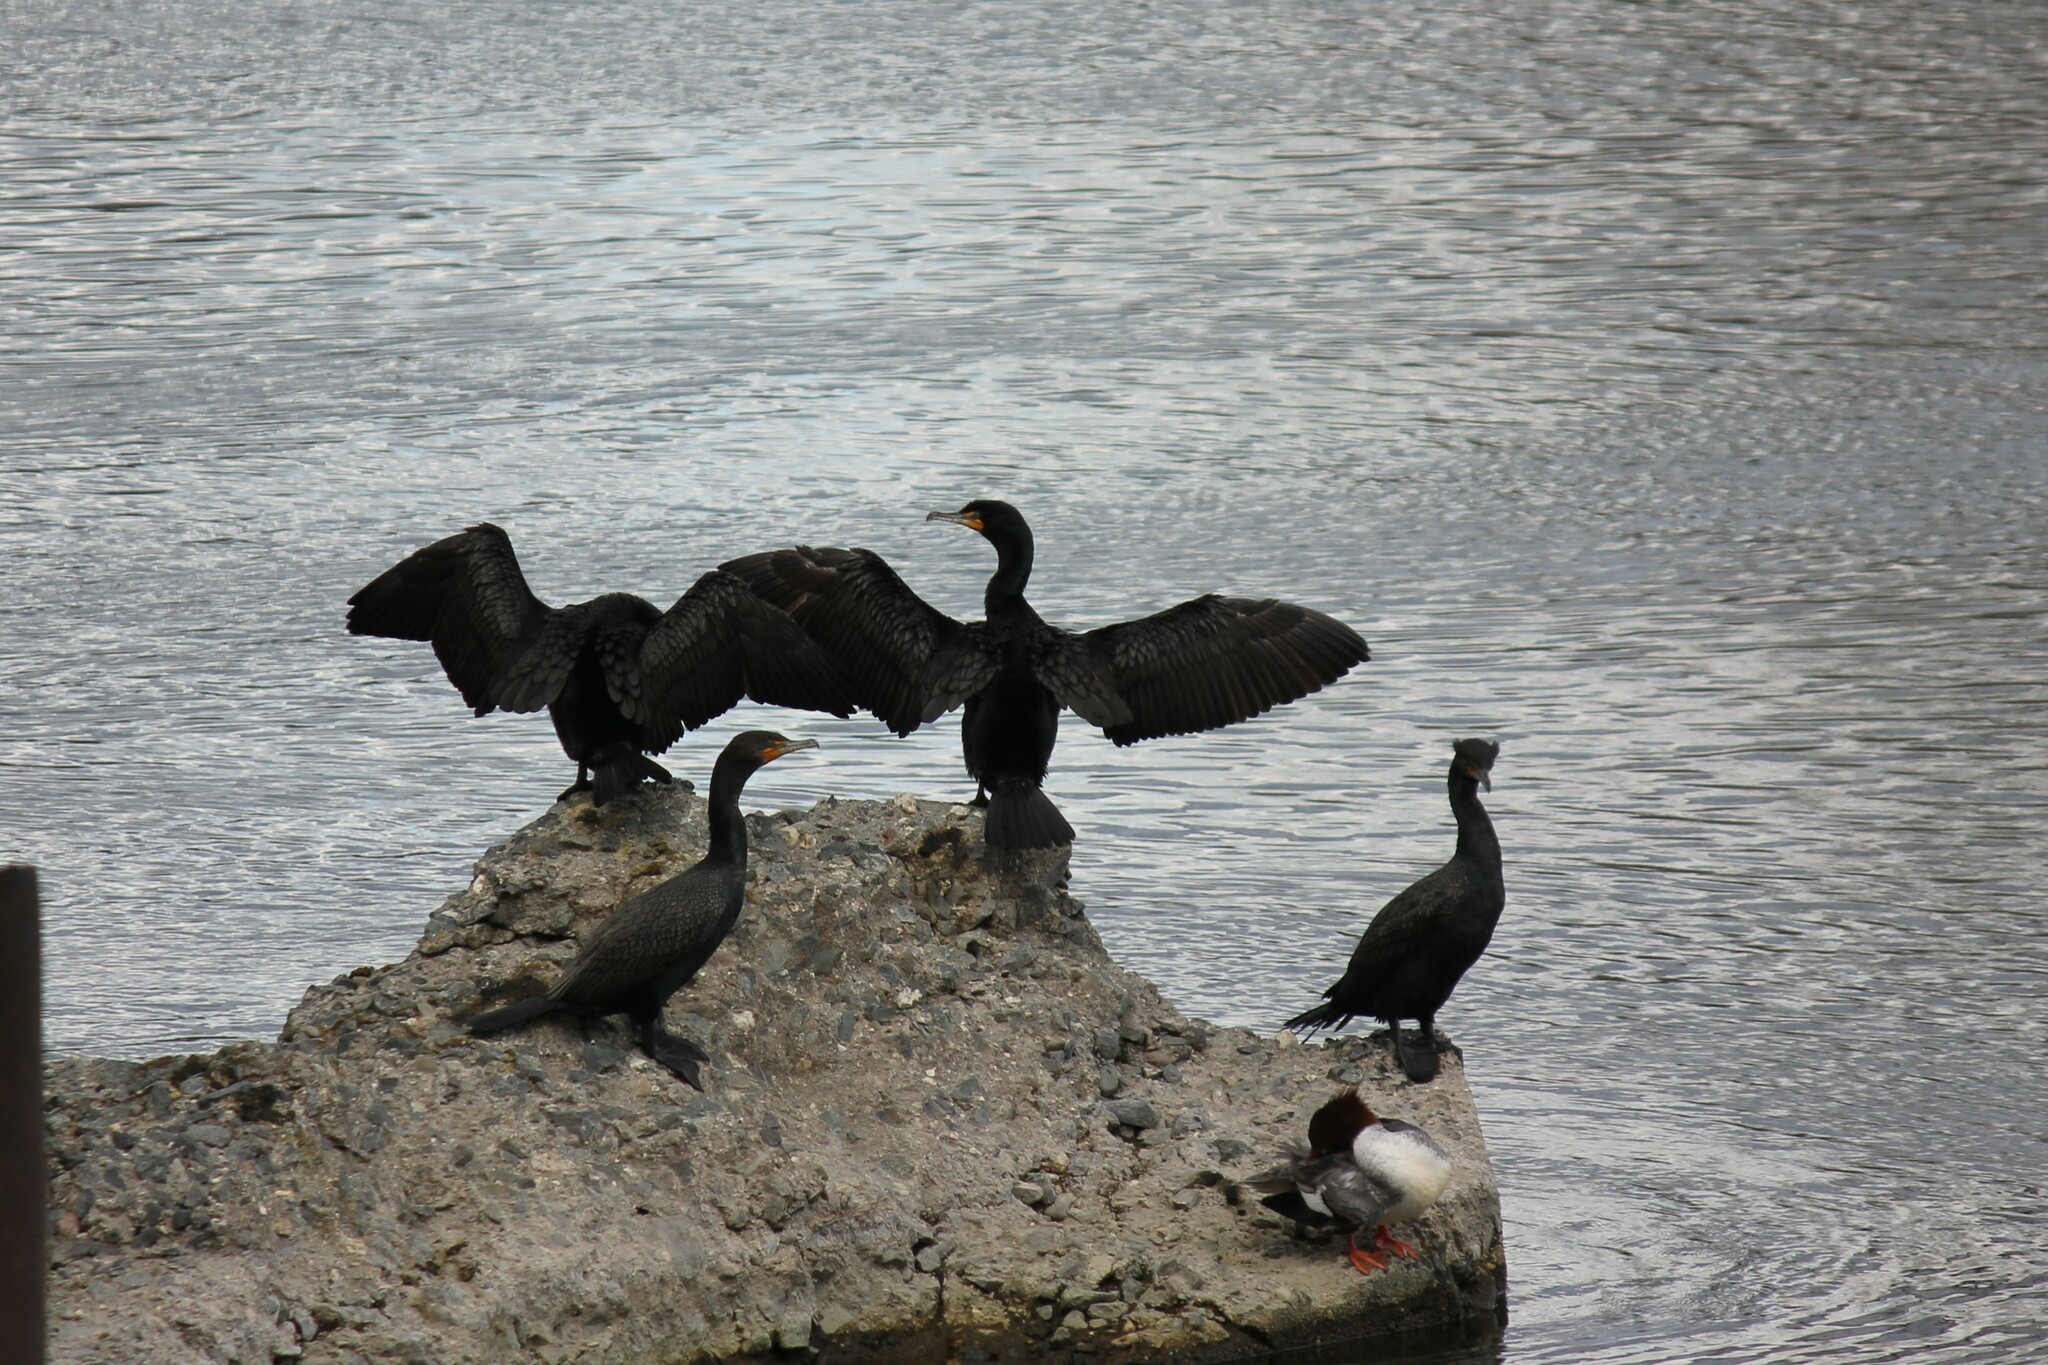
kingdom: Animalia
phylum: Chordata
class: Aves
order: Suliformes
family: Phalacrocoracidae
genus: Phalacrocorax
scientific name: Phalacrocorax auritus
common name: Double-crested cormorant
